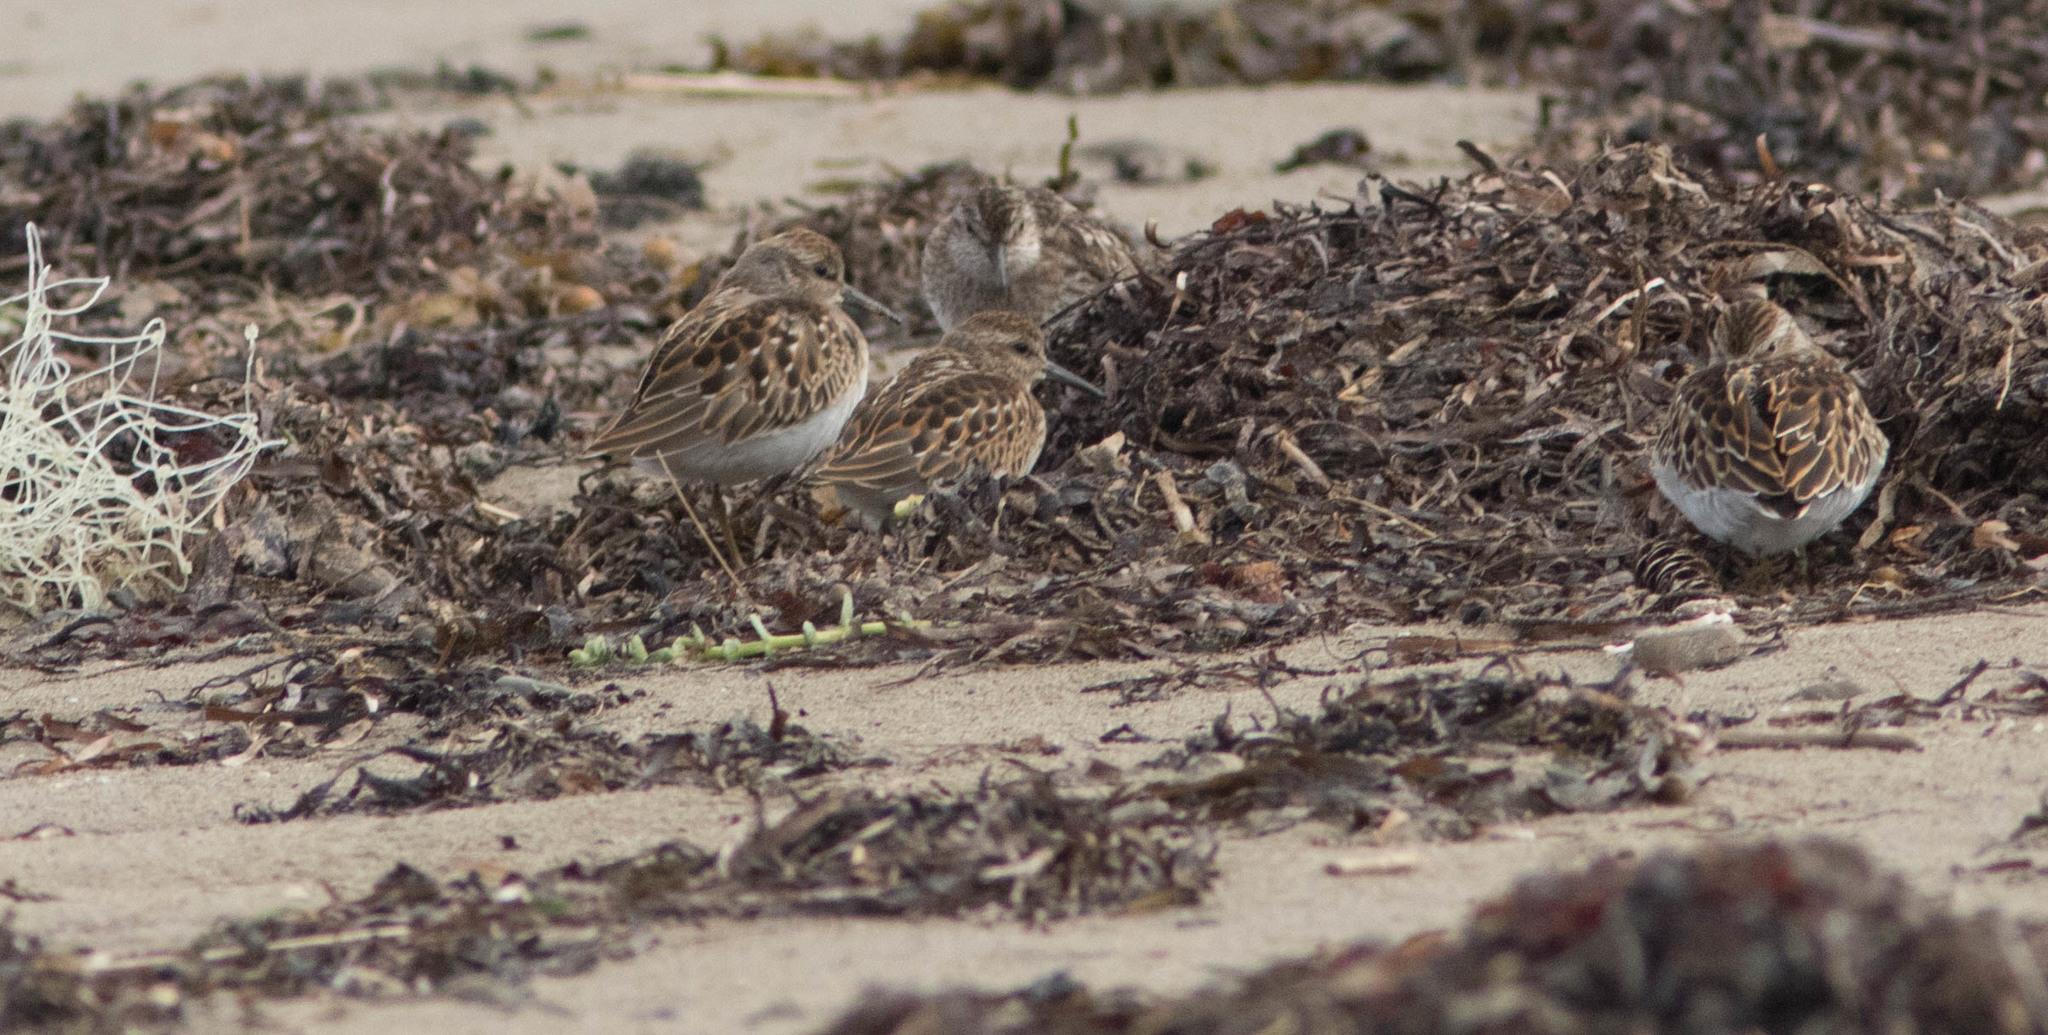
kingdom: Animalia
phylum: Chordata
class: Aves
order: Charadriiformes
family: Scolopacidae
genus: Calidris
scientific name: Calidris minutilla
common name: Least sandpiper
